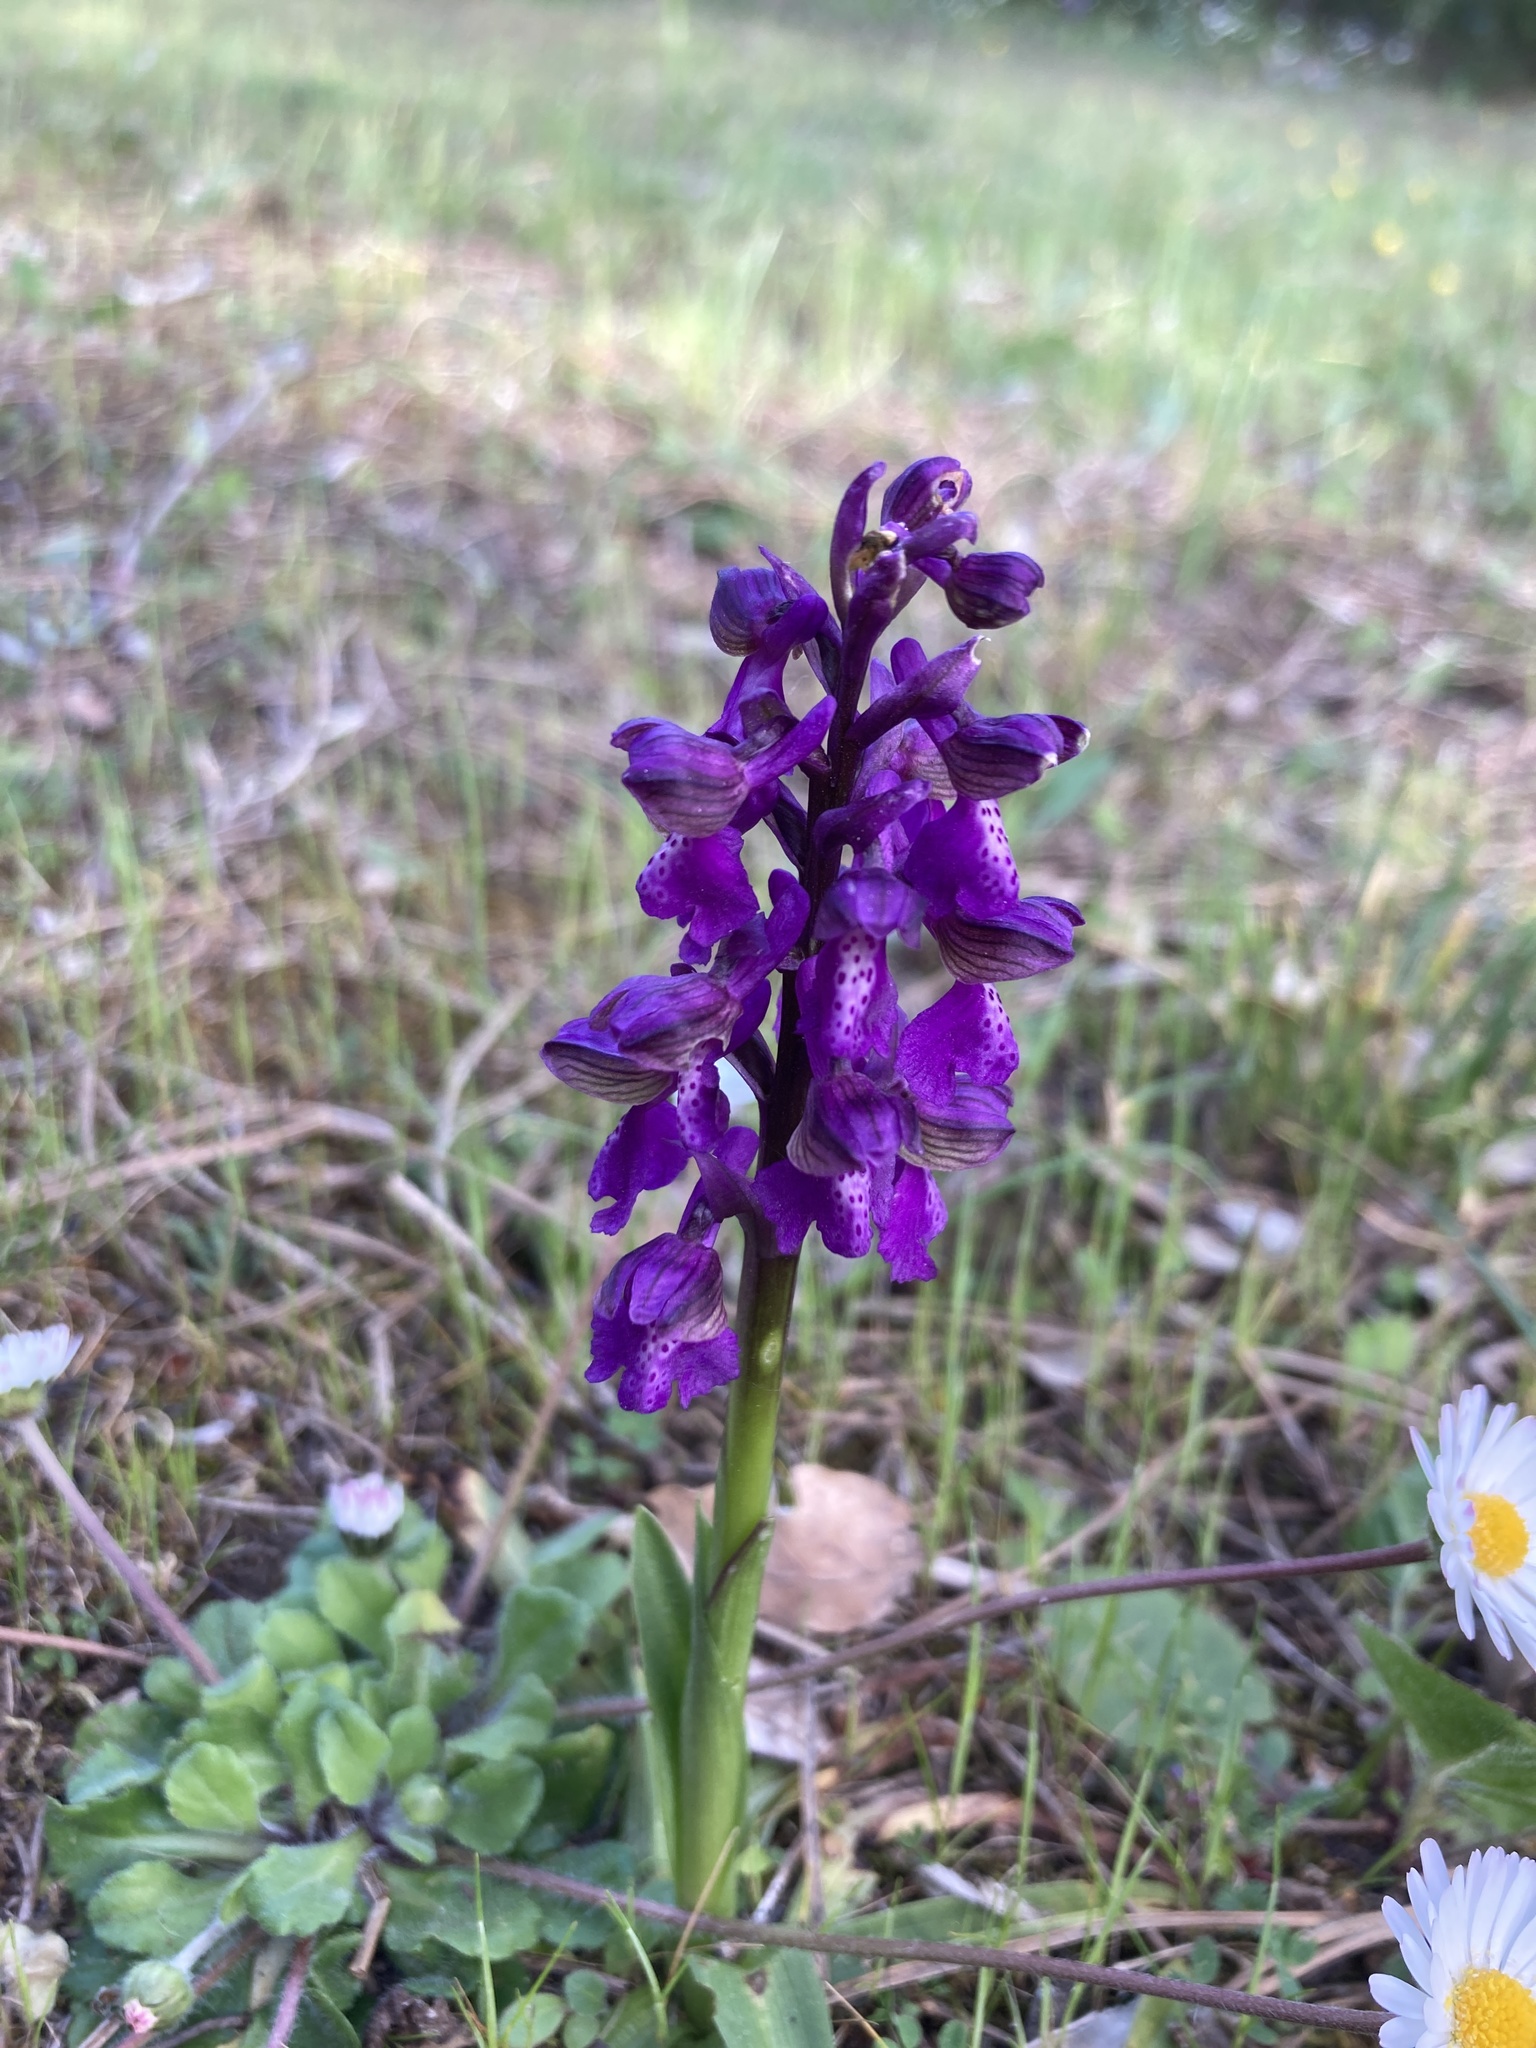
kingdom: Plantae
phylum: Tracheophyta
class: Liliopsida
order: Asparagales
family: Orchidaceae
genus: Anacamptis
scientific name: Anacamptis morio
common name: Green-winged orchid
